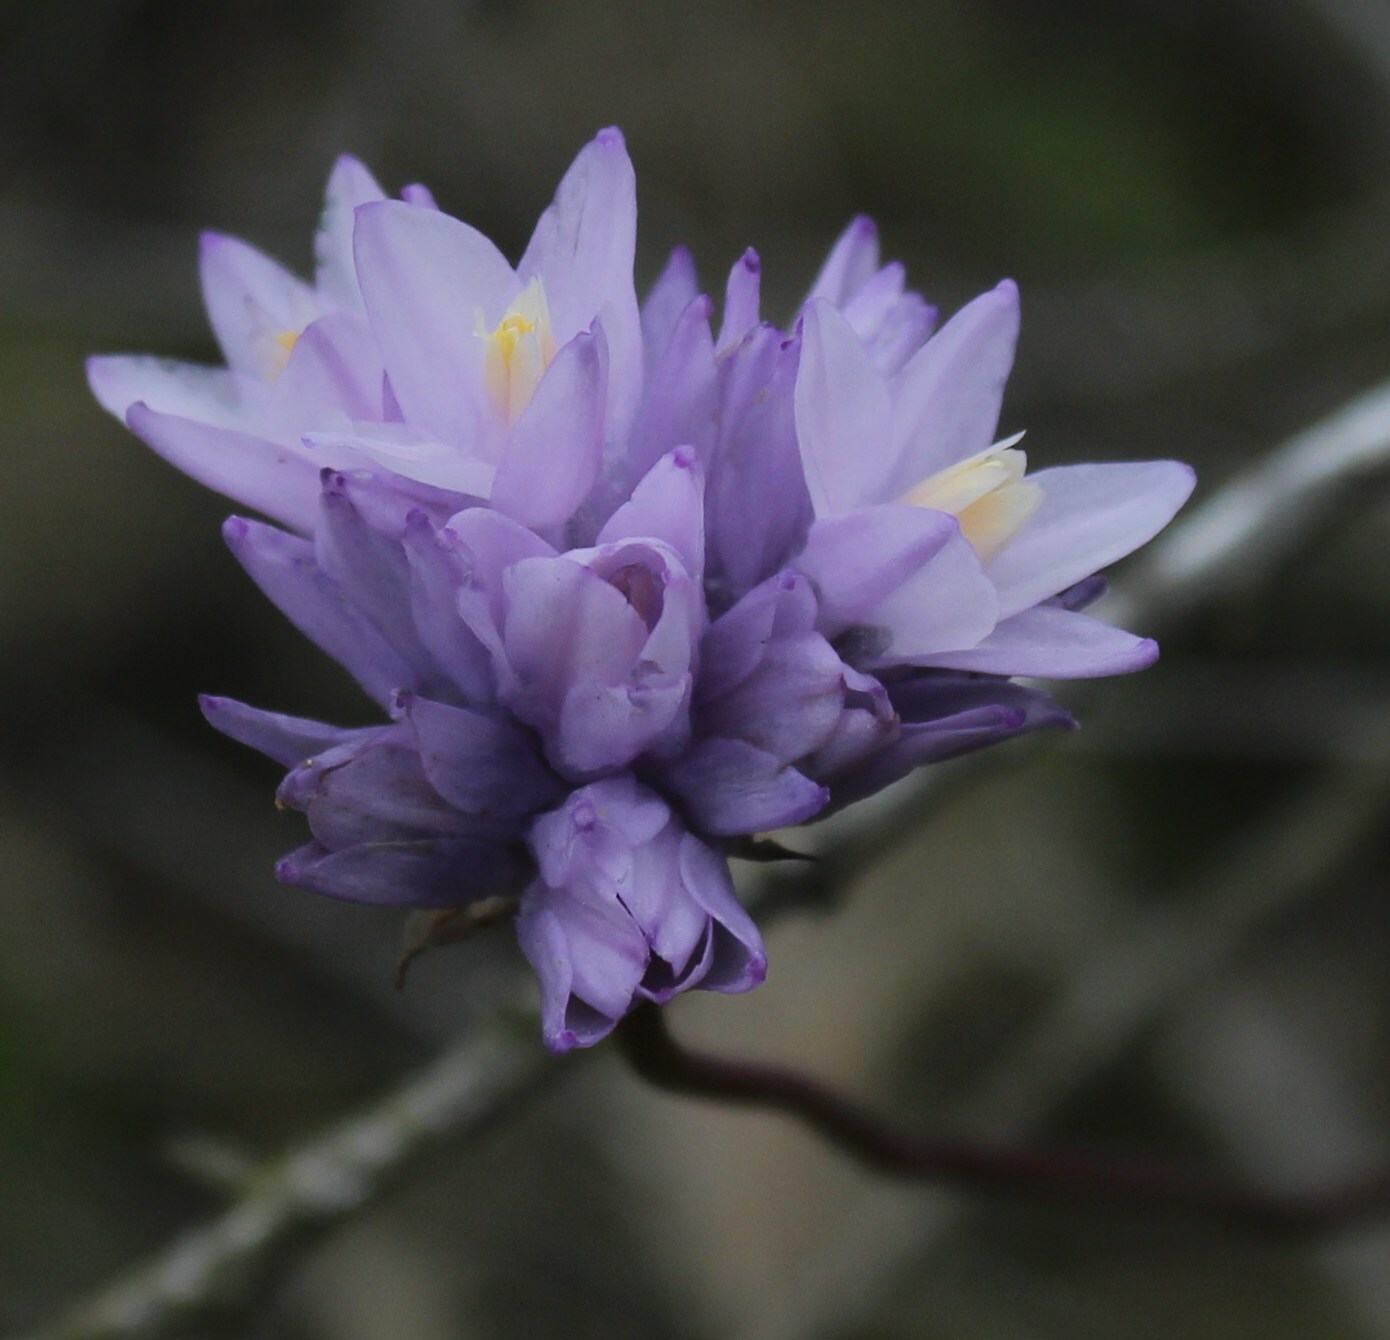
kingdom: Plantae
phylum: Tracheophyta
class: Liliopsida
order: Asparagales
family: Asparagaceae
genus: Dipterostemon
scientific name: Dipterostemon capitatus
